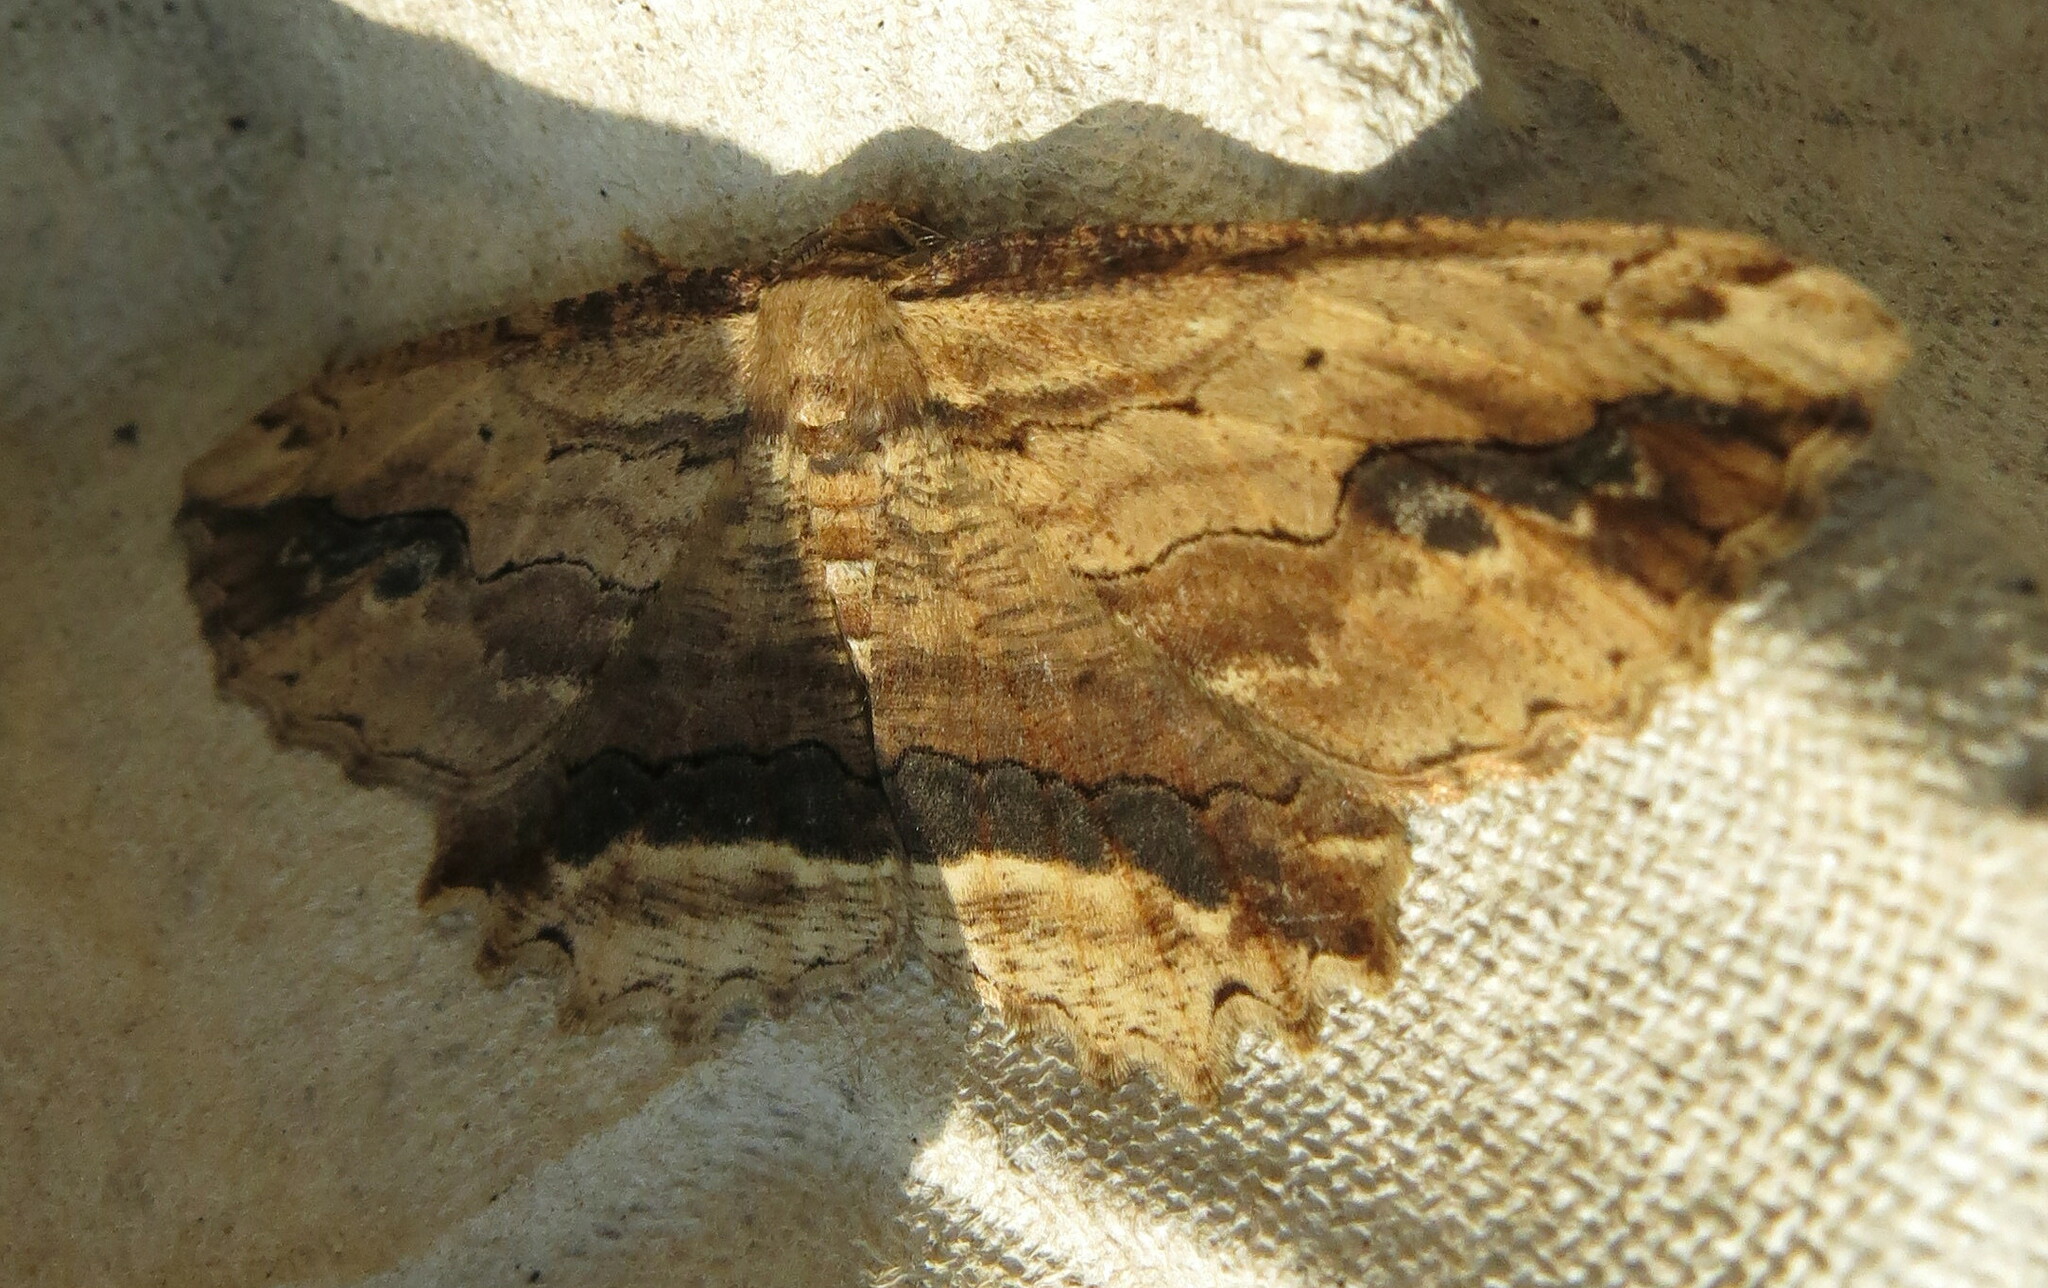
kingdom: Animalia
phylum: Arthropoda
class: Insecta
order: Lepidoptera
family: Geometridae
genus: Menophra
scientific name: Menophra abruptaria
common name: Waved umber
